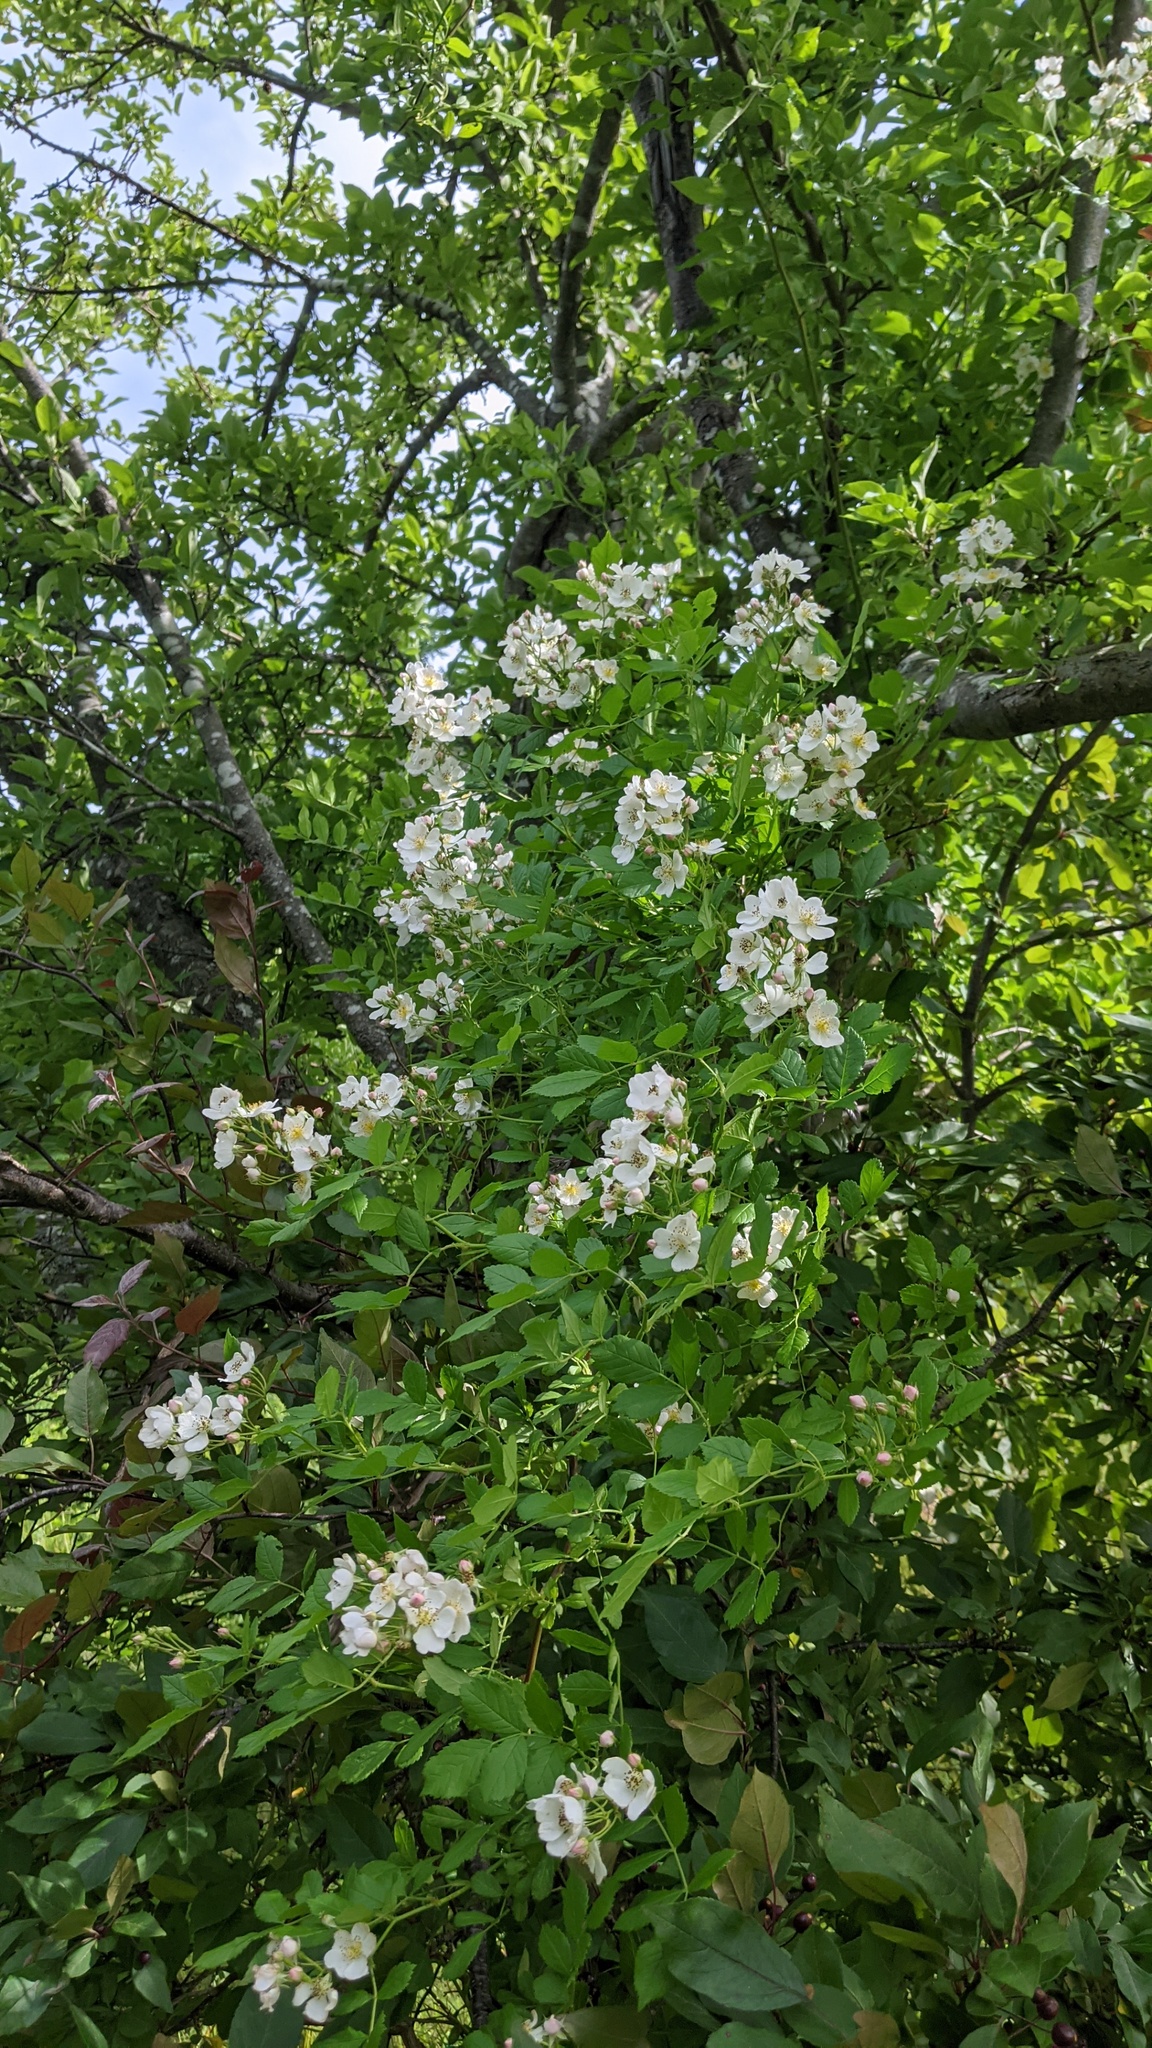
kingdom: Plantae
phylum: Tracheophyta
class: Magnoliopsida
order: Rosales
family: Rosaceae
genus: Rosa
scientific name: Rosa multiflora
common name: Multiflora rose
